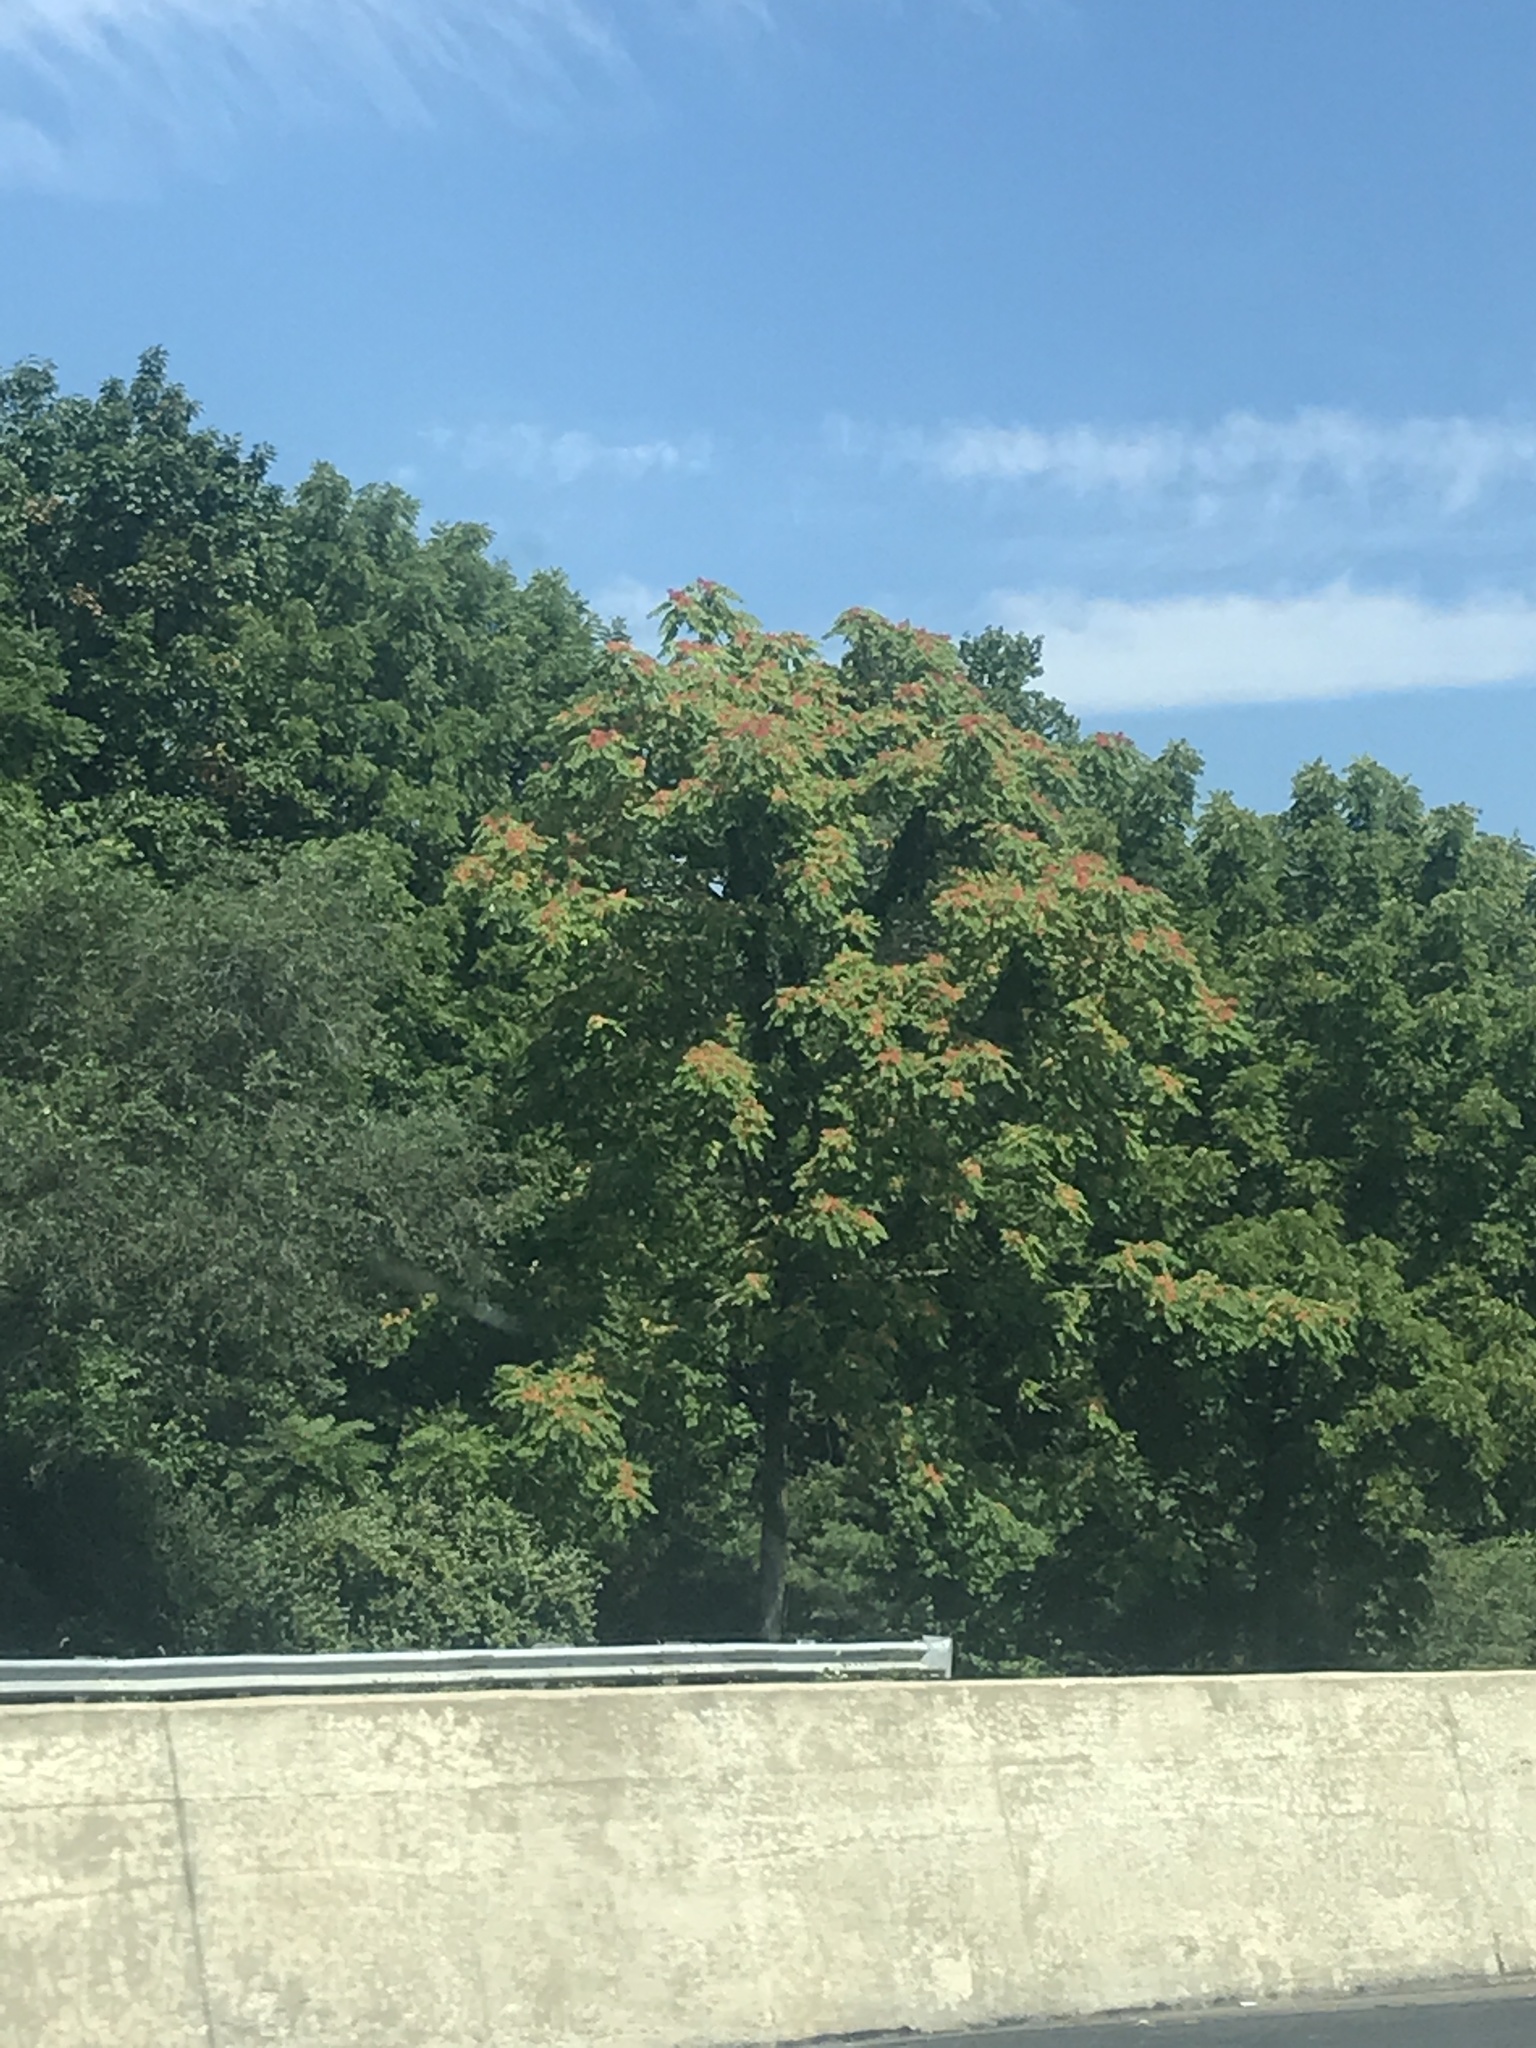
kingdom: Plantae
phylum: Tracheophyta
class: Magnoliopsida
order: Sapindales
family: Simaroubaceae
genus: Ailanthus
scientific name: Ailanthus altissima
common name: Tree-of-heaven
